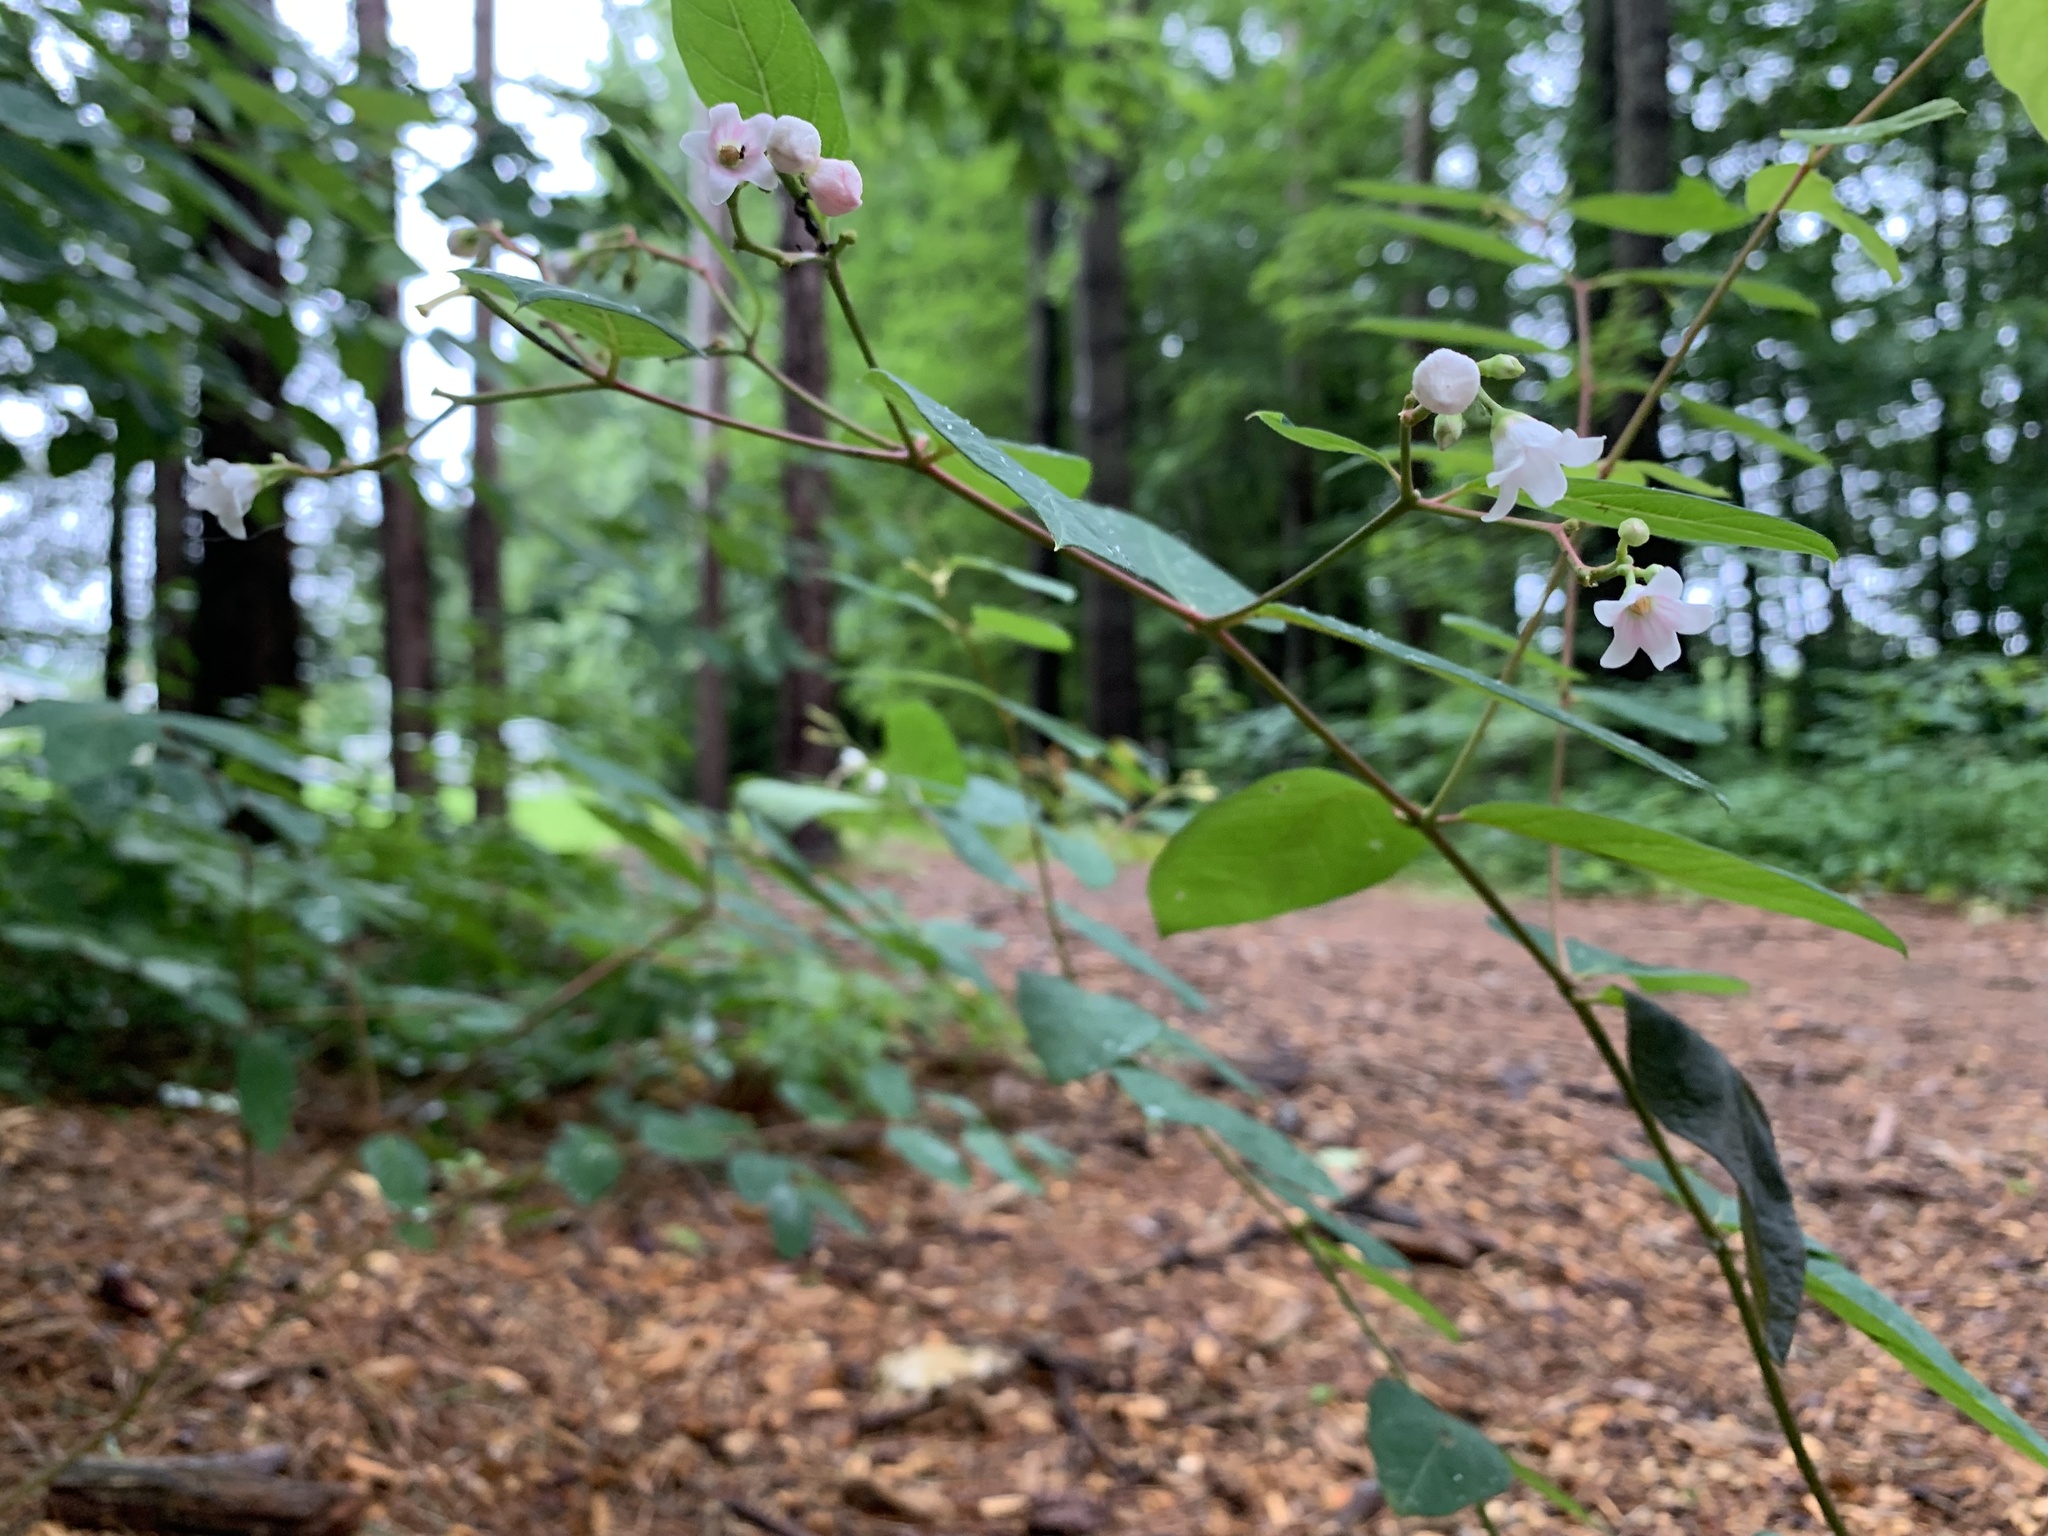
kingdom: Plantae
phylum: Tracheophyta
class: Magnoliopsida
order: Gentianales
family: Apocynaceae
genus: Apocynum
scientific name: Apocynum androsaemifolium
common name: Spreading dogbane
